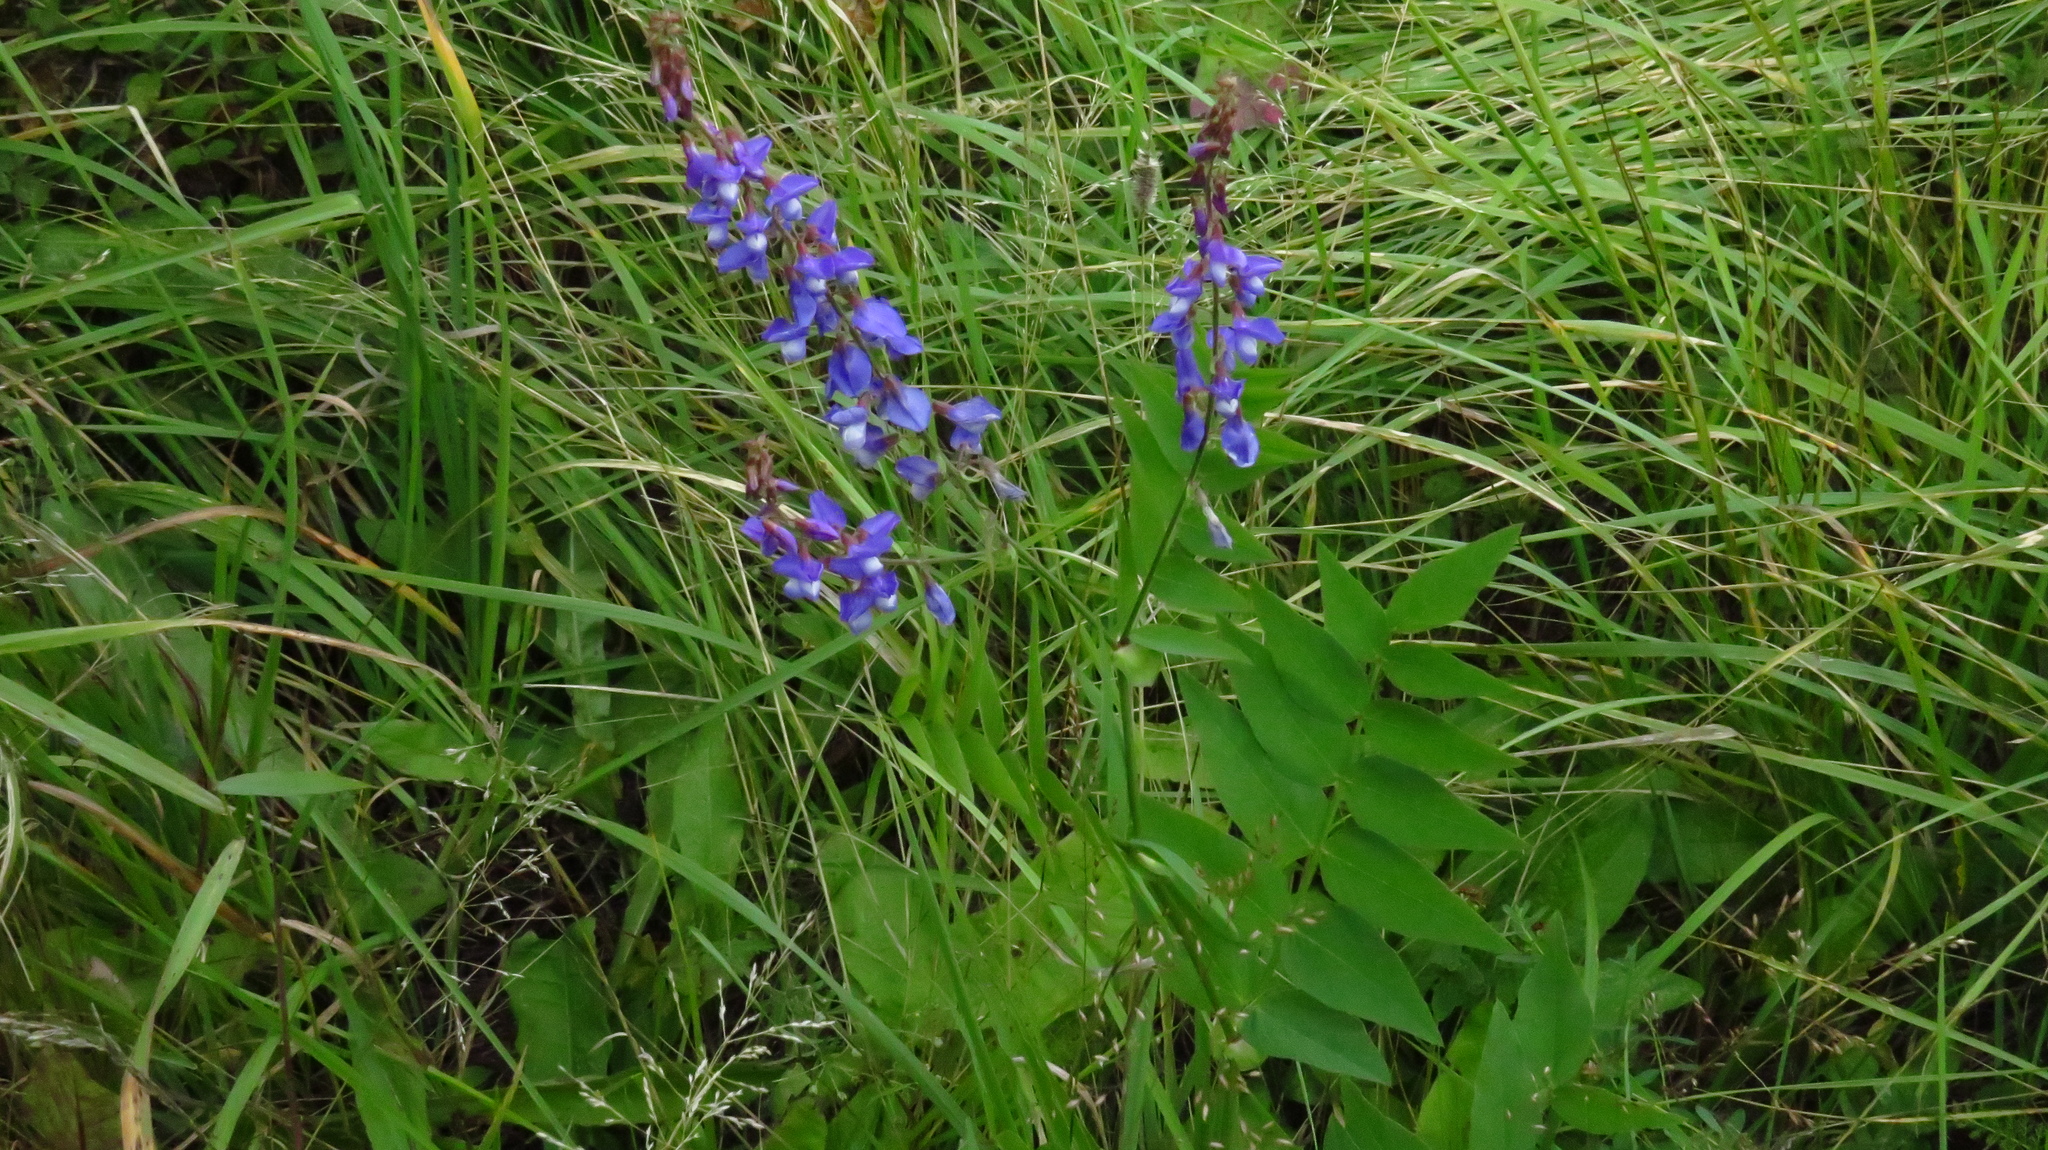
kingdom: Plantae
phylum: Tracheophyta
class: Magnoliopsida
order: Fabales
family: Fabaceae
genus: Galega
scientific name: Galega orientalis
